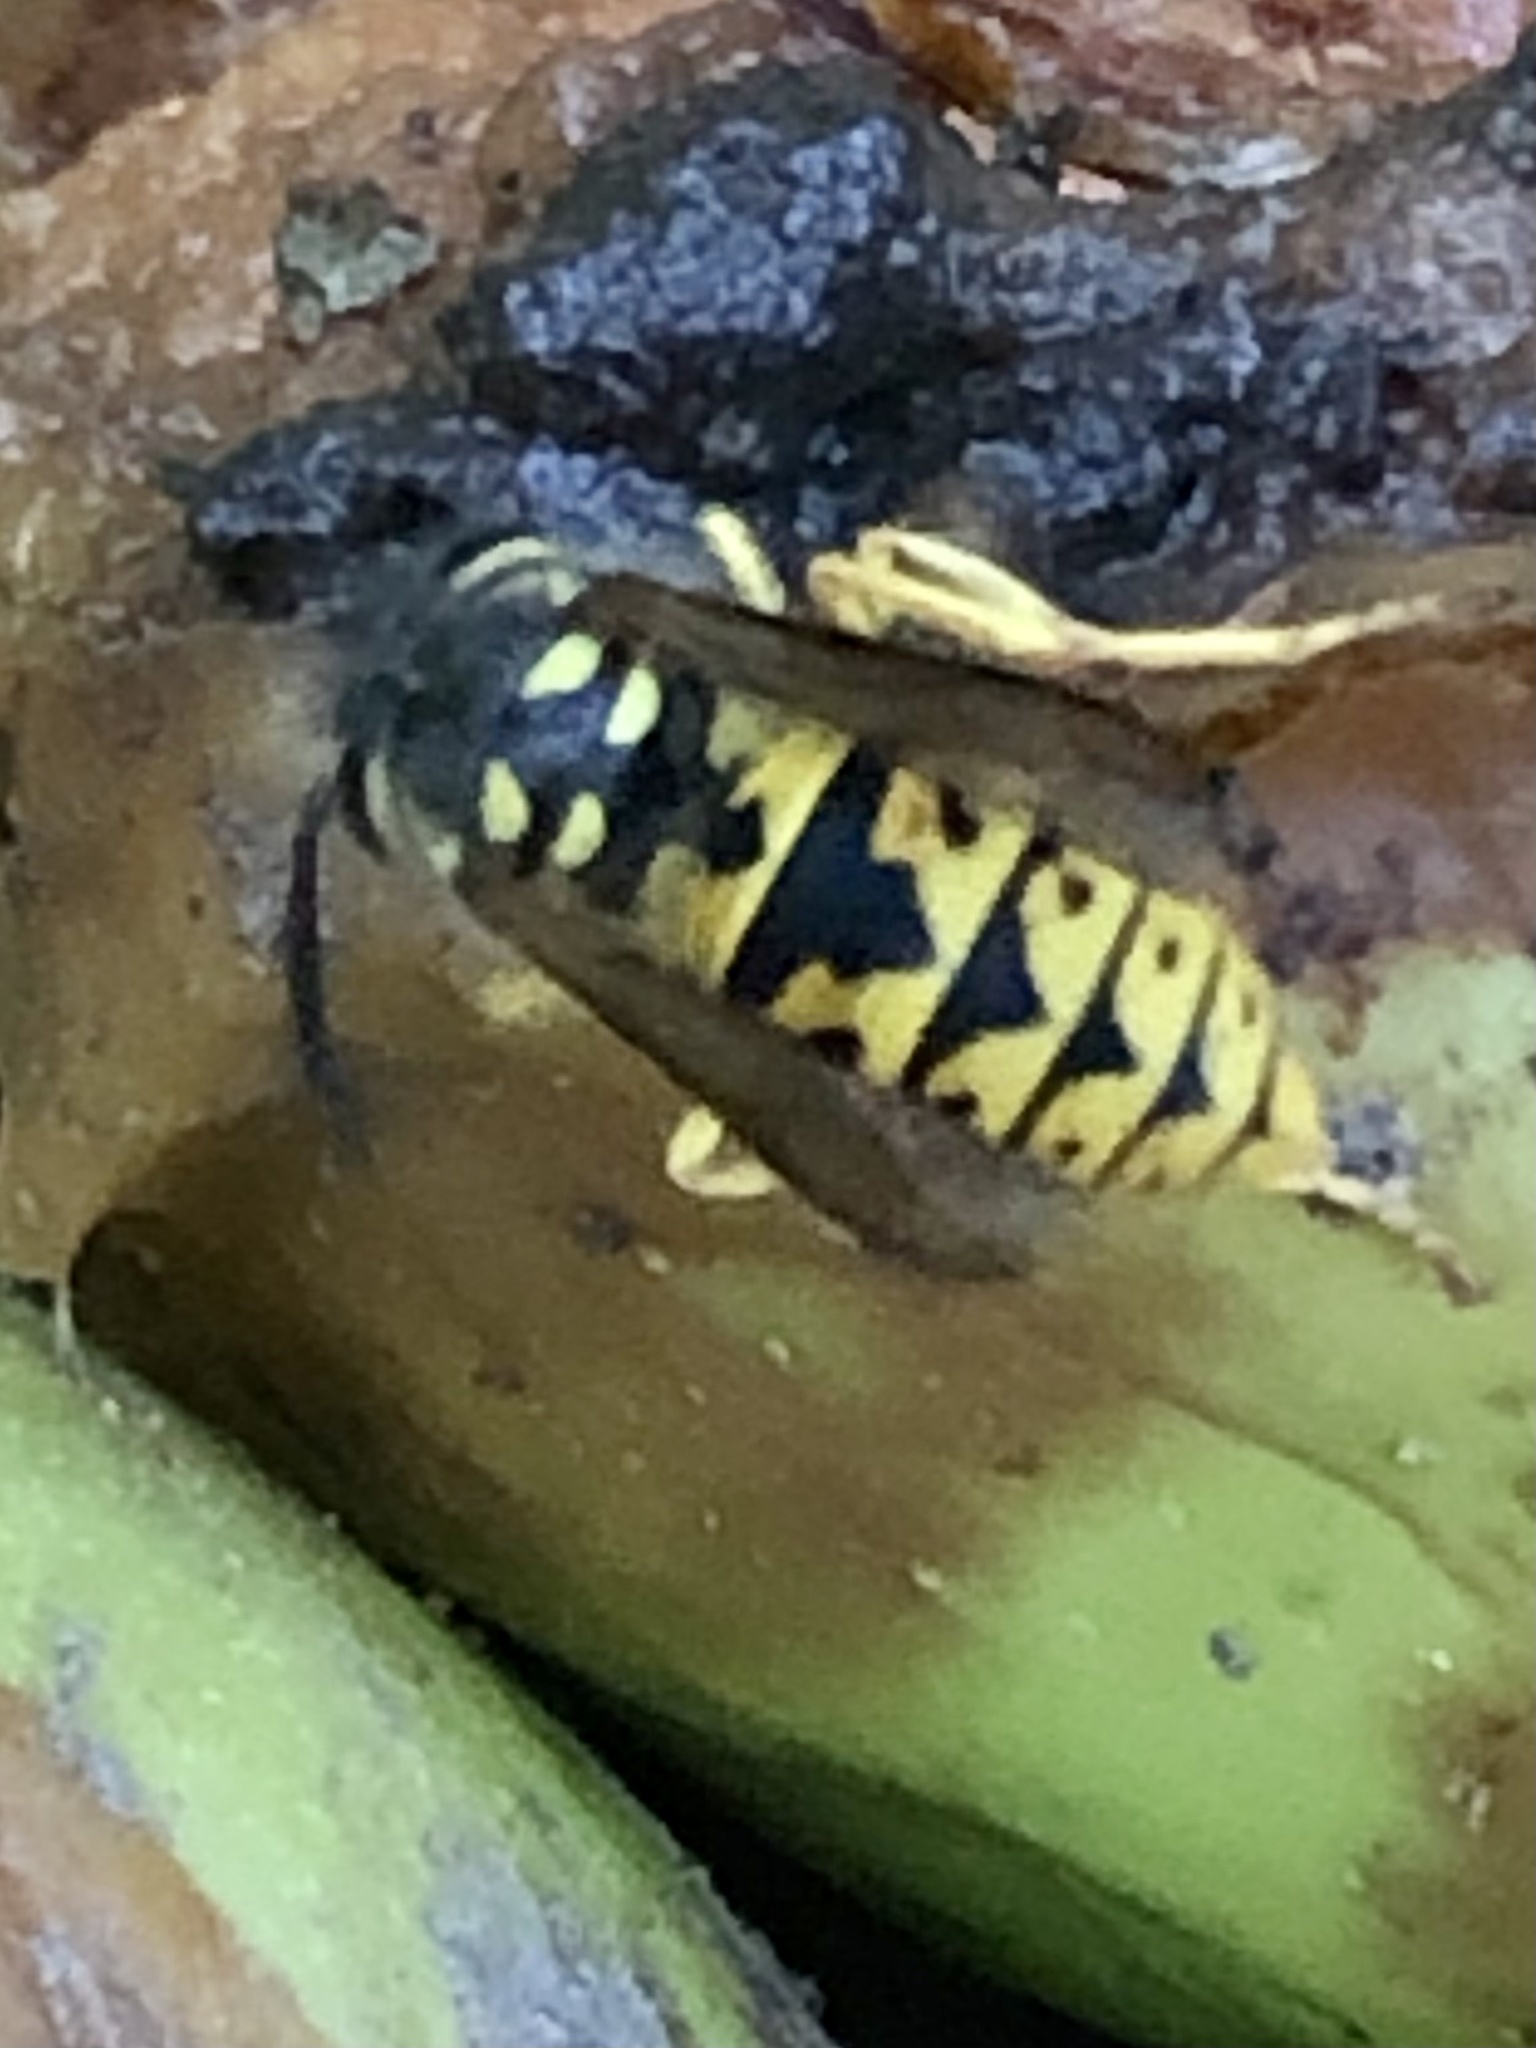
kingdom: Animalia
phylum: Arthropoda
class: Insecta
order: Hymenoptera
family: Vespidae
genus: Vespula
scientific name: Vespula germanica
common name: German wasp
